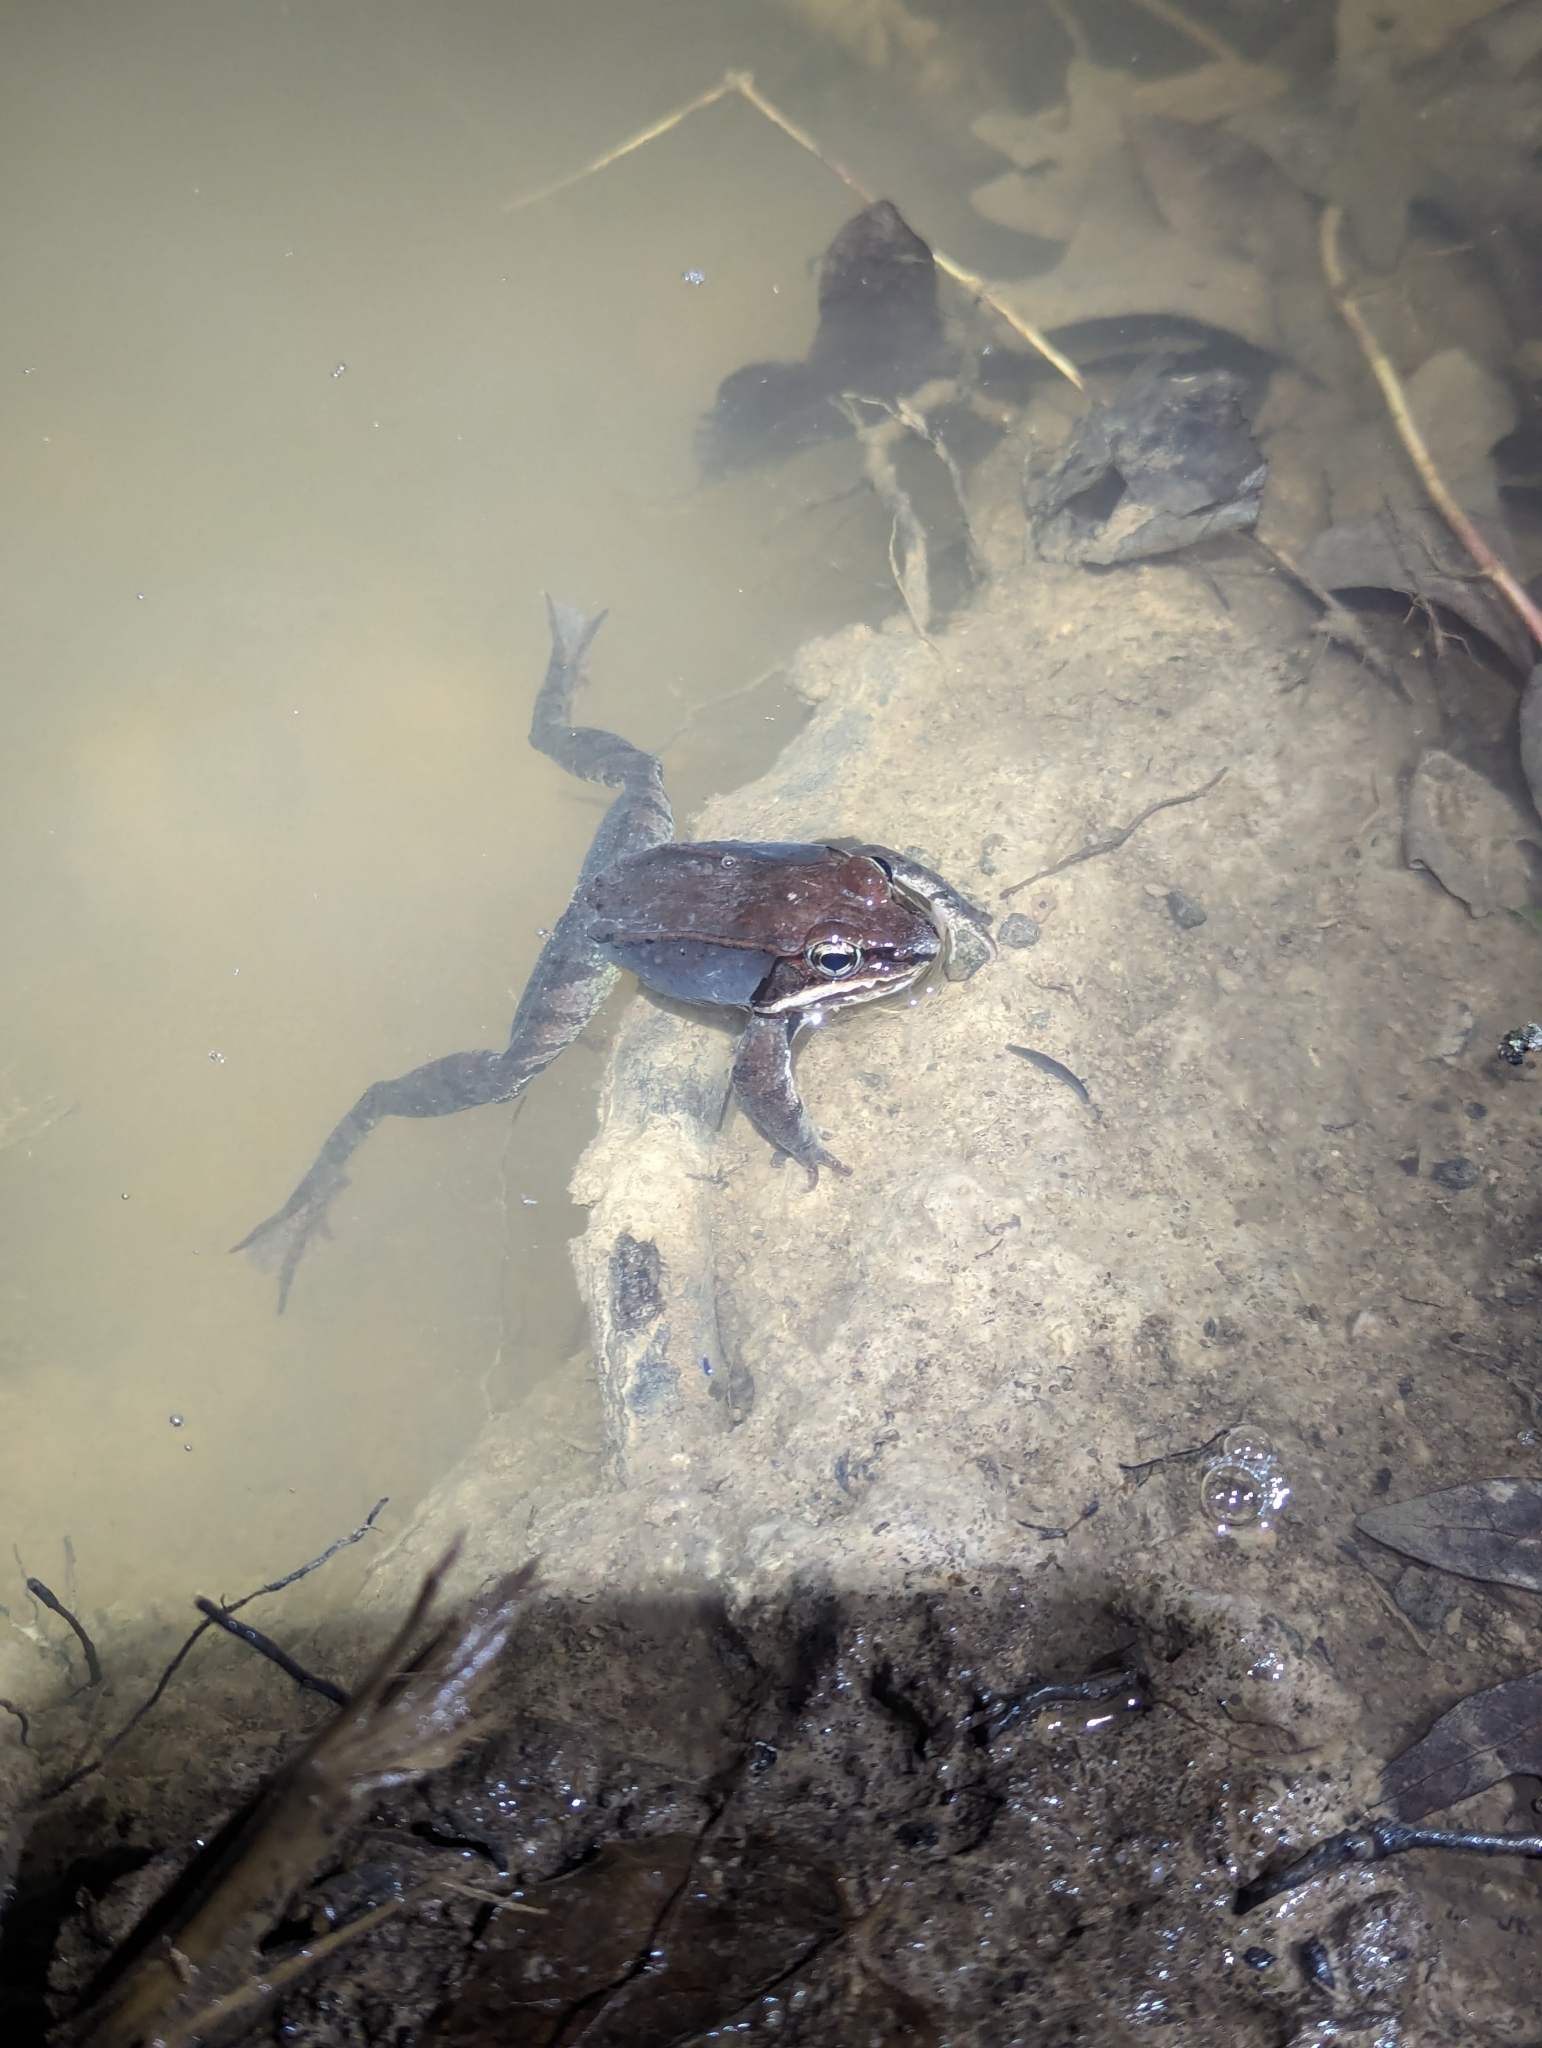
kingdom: Animalia
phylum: Chordata
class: Amphibia
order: Anura
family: Ranidae
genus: Lithobates
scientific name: Lithobates sylvaticus
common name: Wood frog
